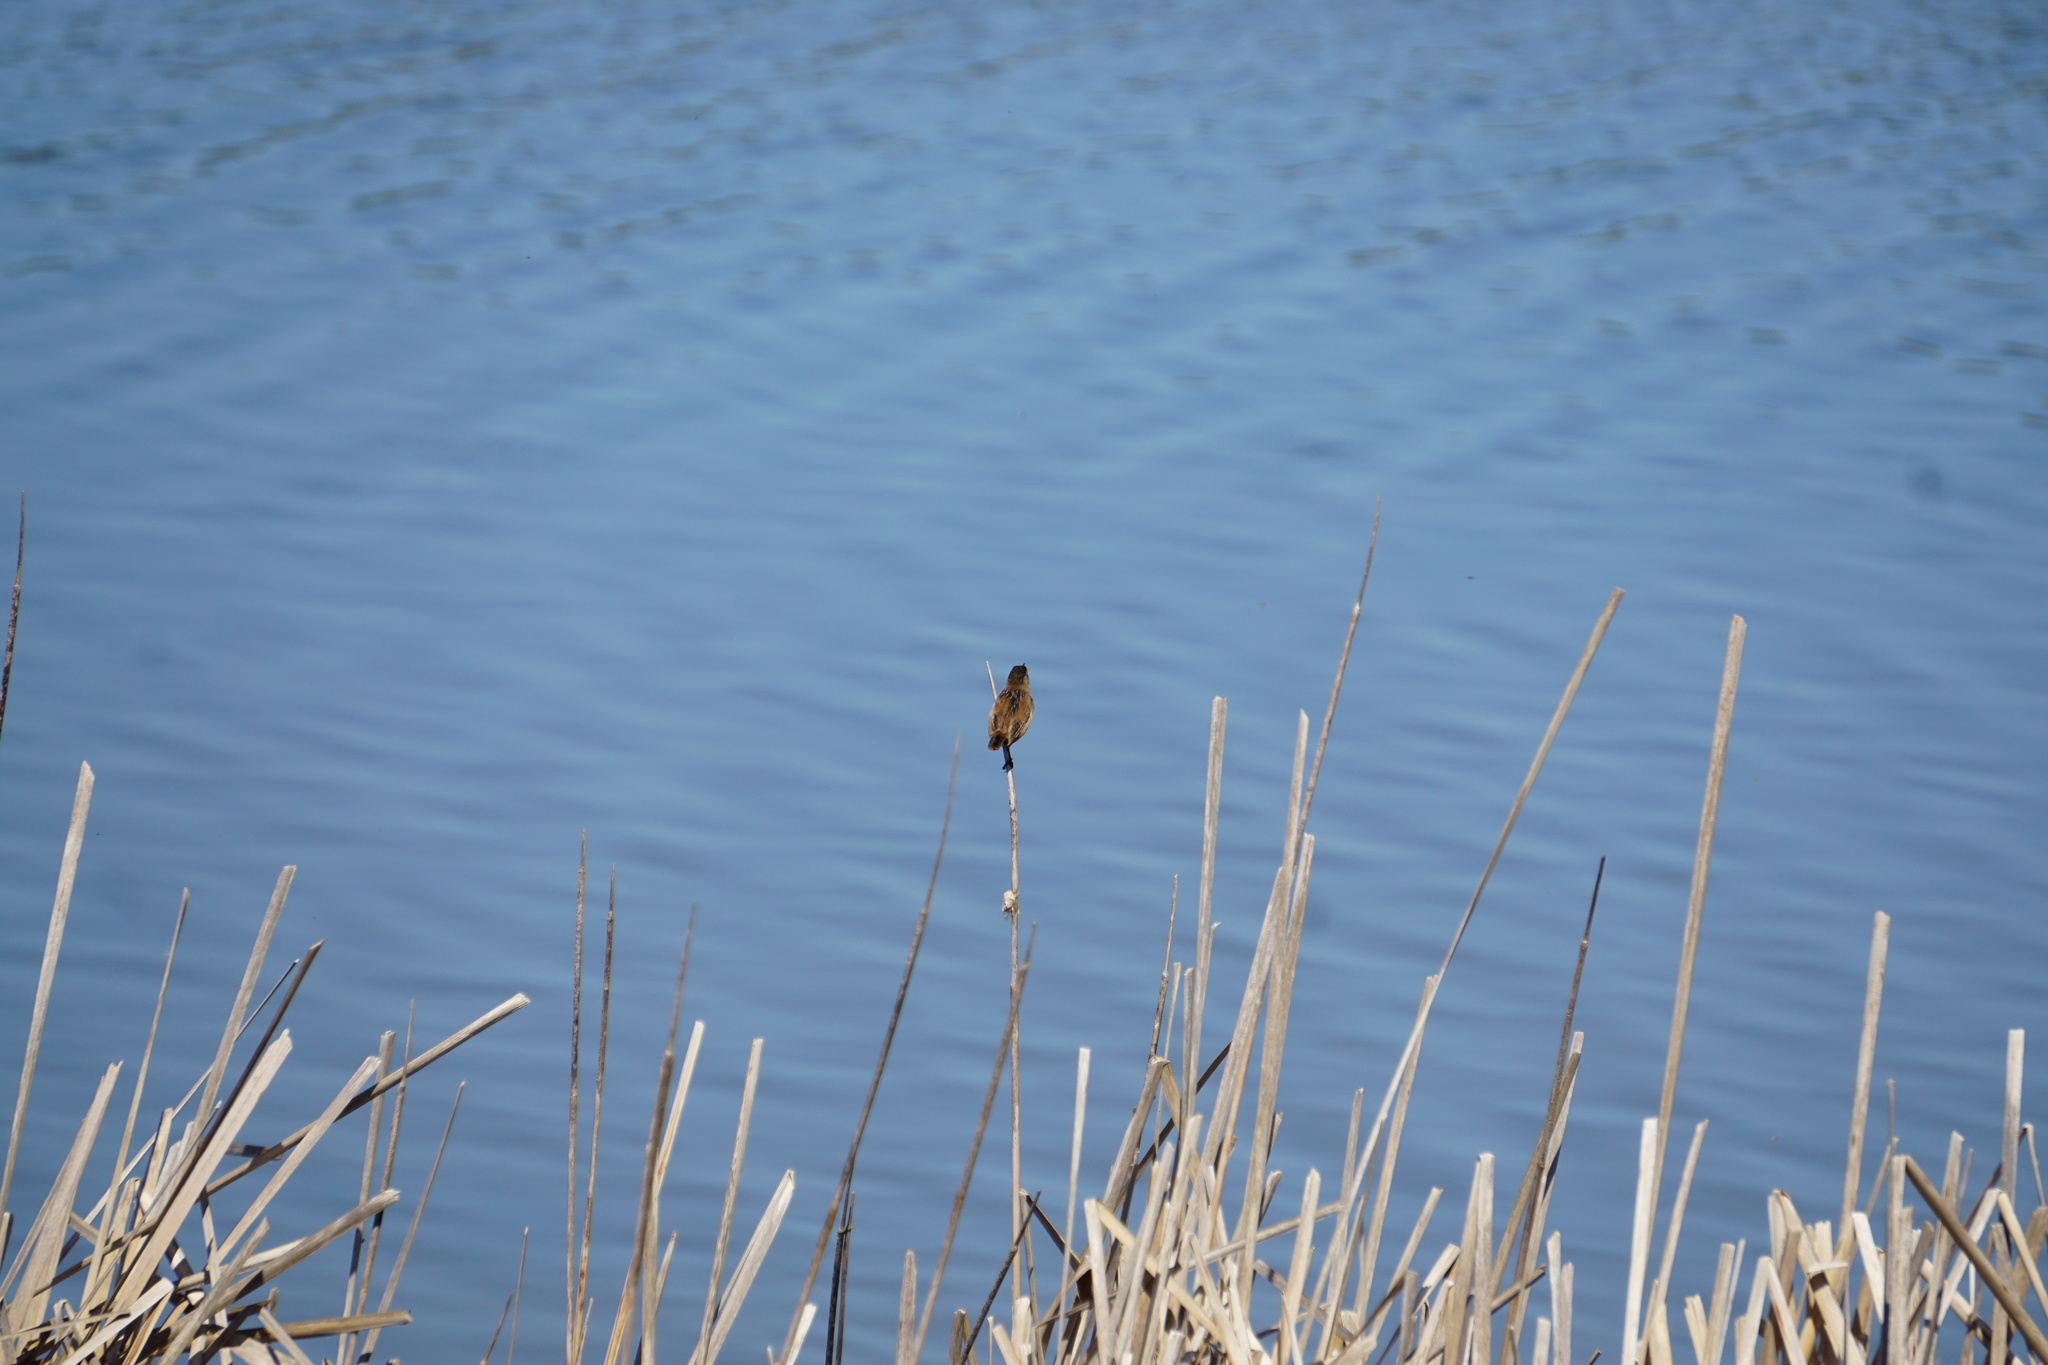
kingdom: Animalia
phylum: Chordata
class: Aves
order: Passeriformes
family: Troglodytidae
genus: Cistothorus
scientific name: Cistothorus palustris
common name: Marsh wren
